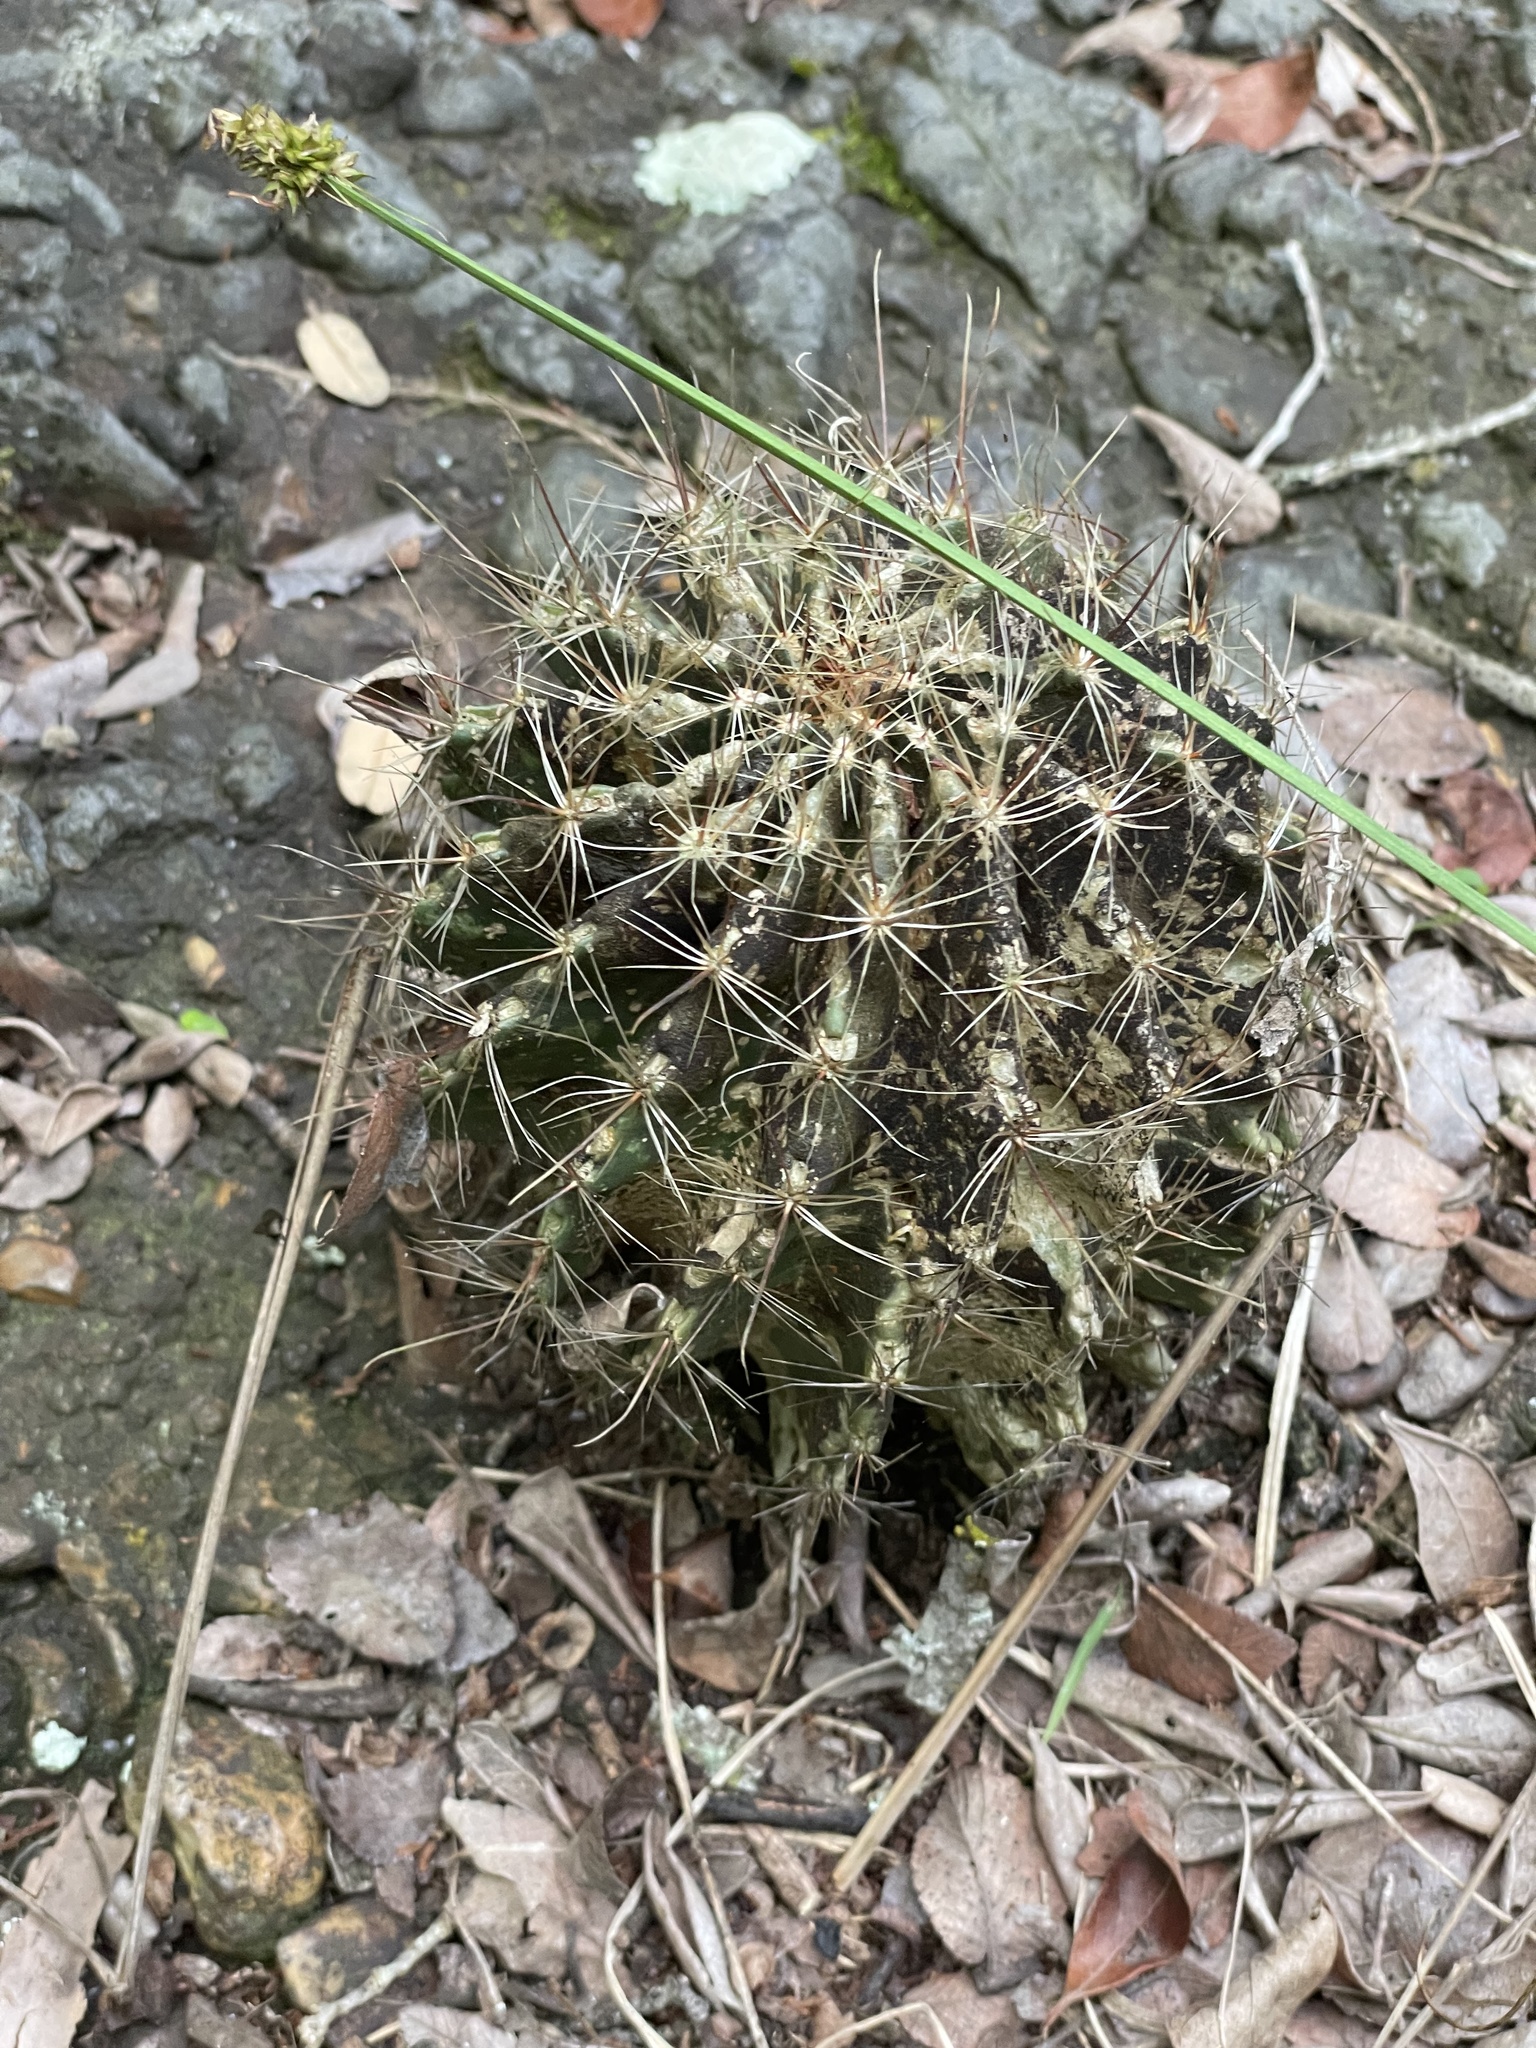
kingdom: Plantae
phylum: Tracheophyta
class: Magnoliopsida
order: Caryophyllales
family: Cactaceae
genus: Thelocactus
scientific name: Thelocactus setispinus
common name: Miniature barrel cactus
